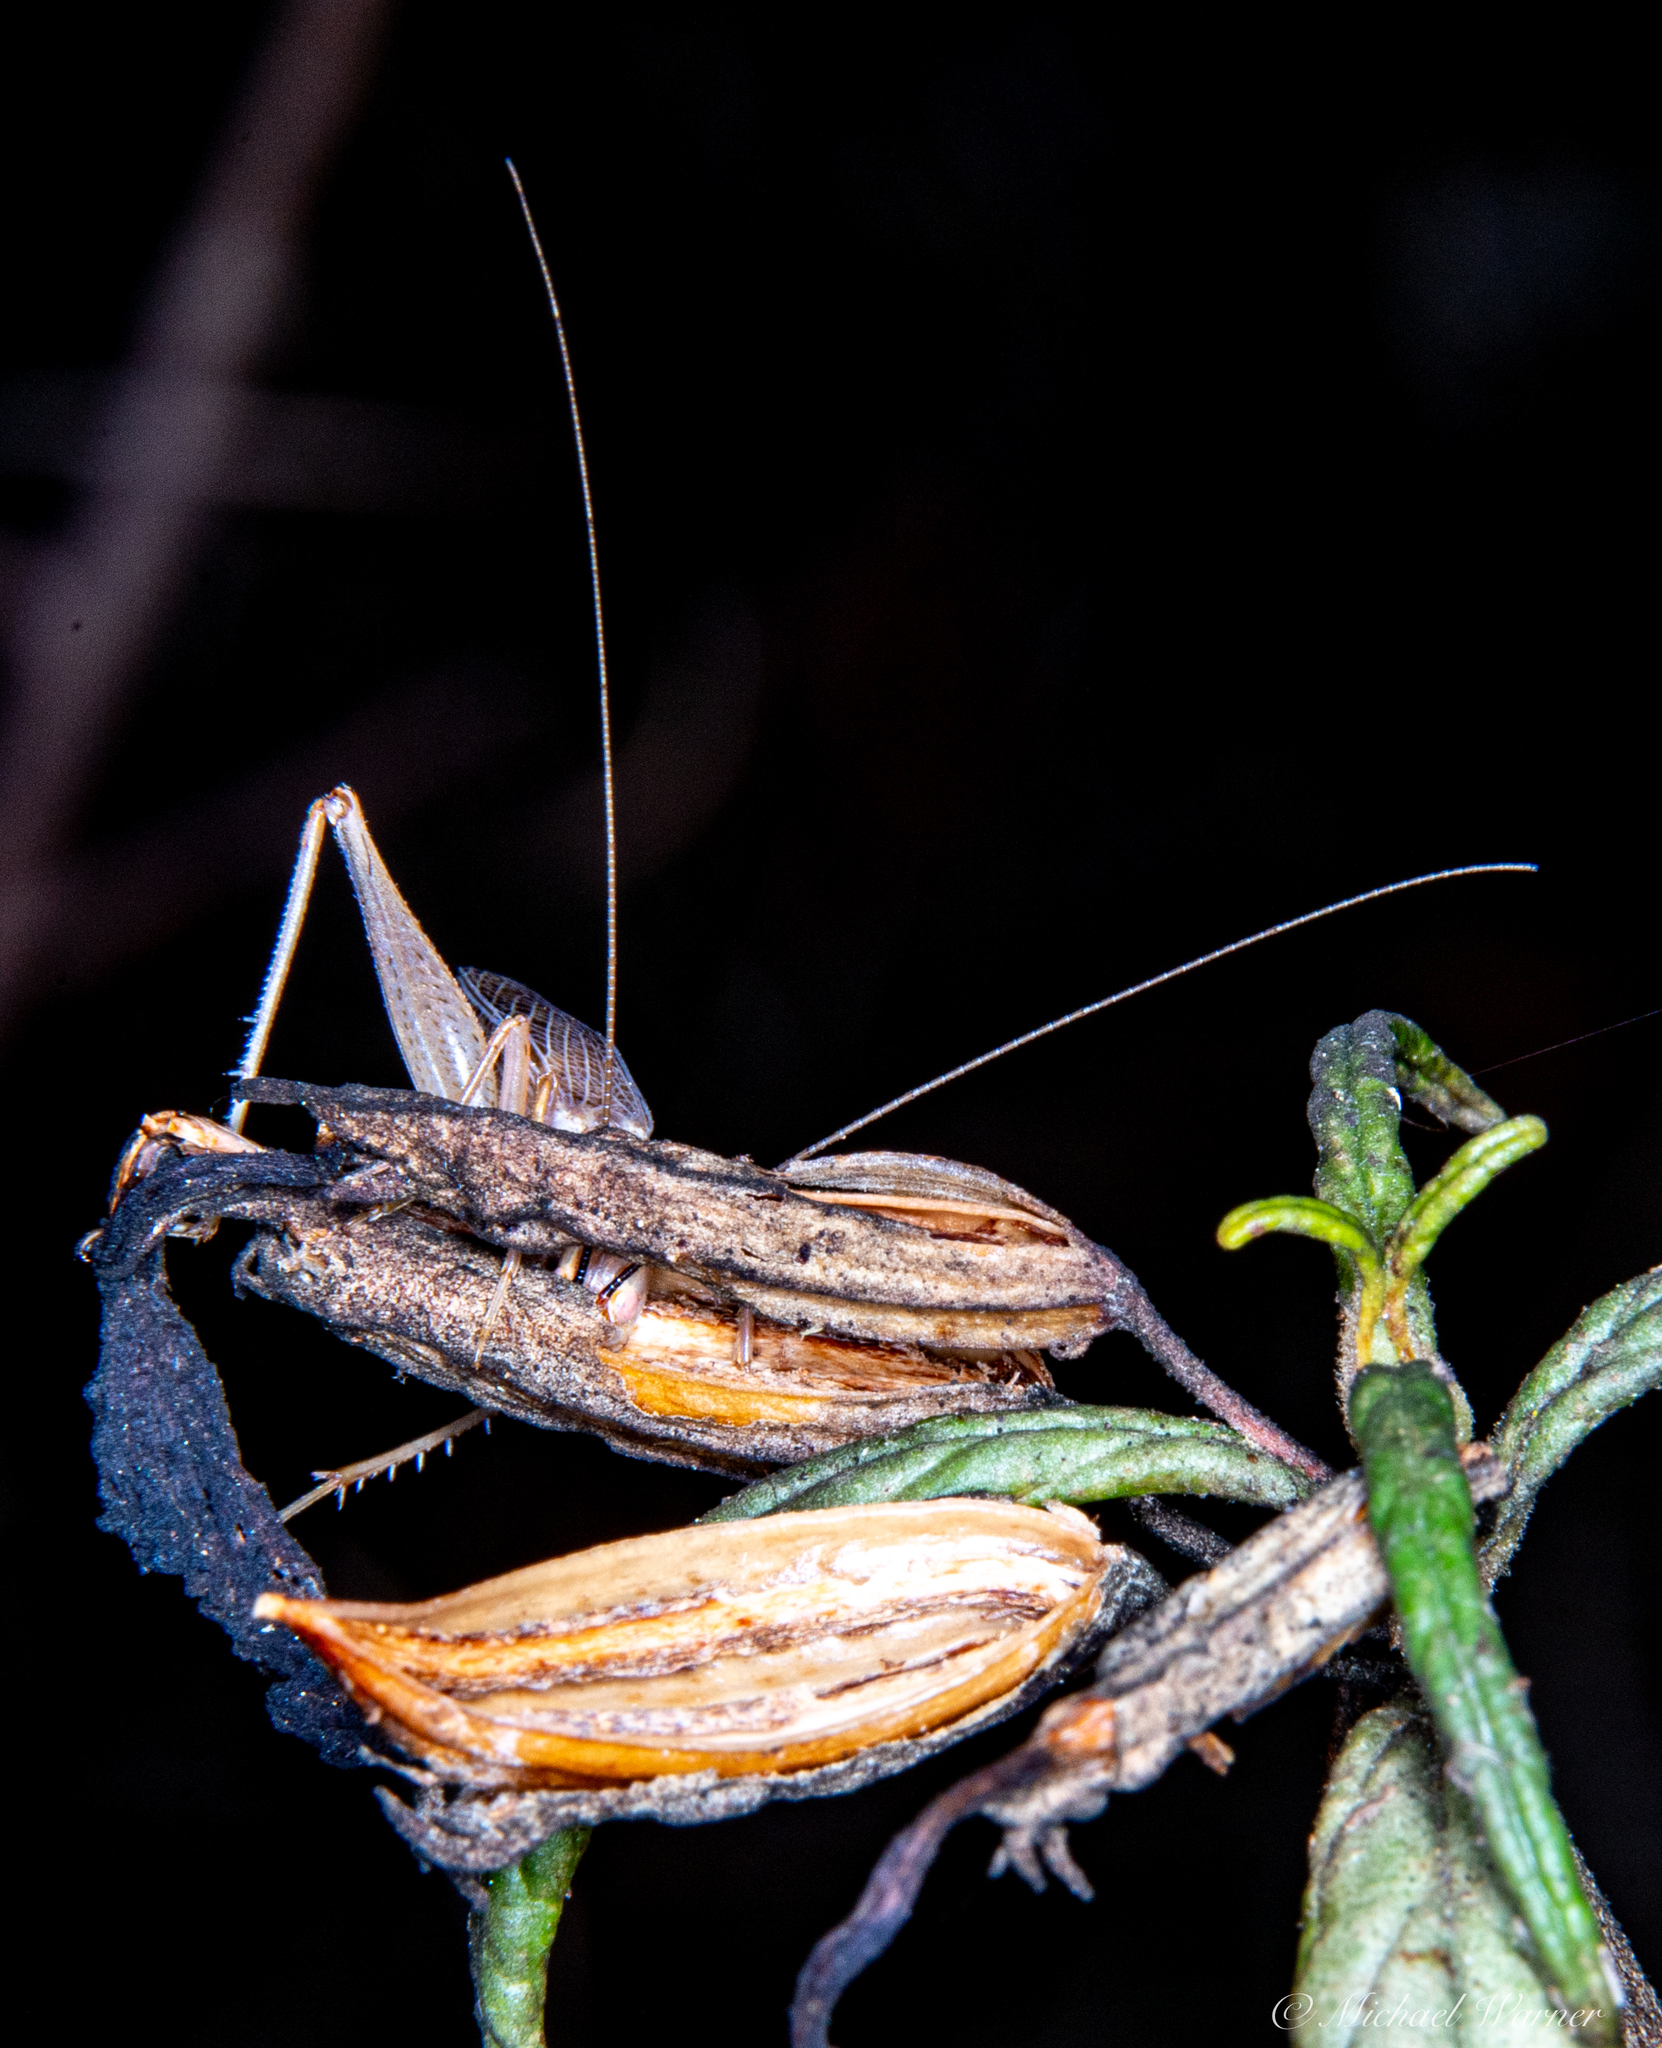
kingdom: Animalia
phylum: Arthropoda
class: Insecta
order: Orthoptera
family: Gryllidae
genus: Oecanthus
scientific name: Oecanthus californicus
